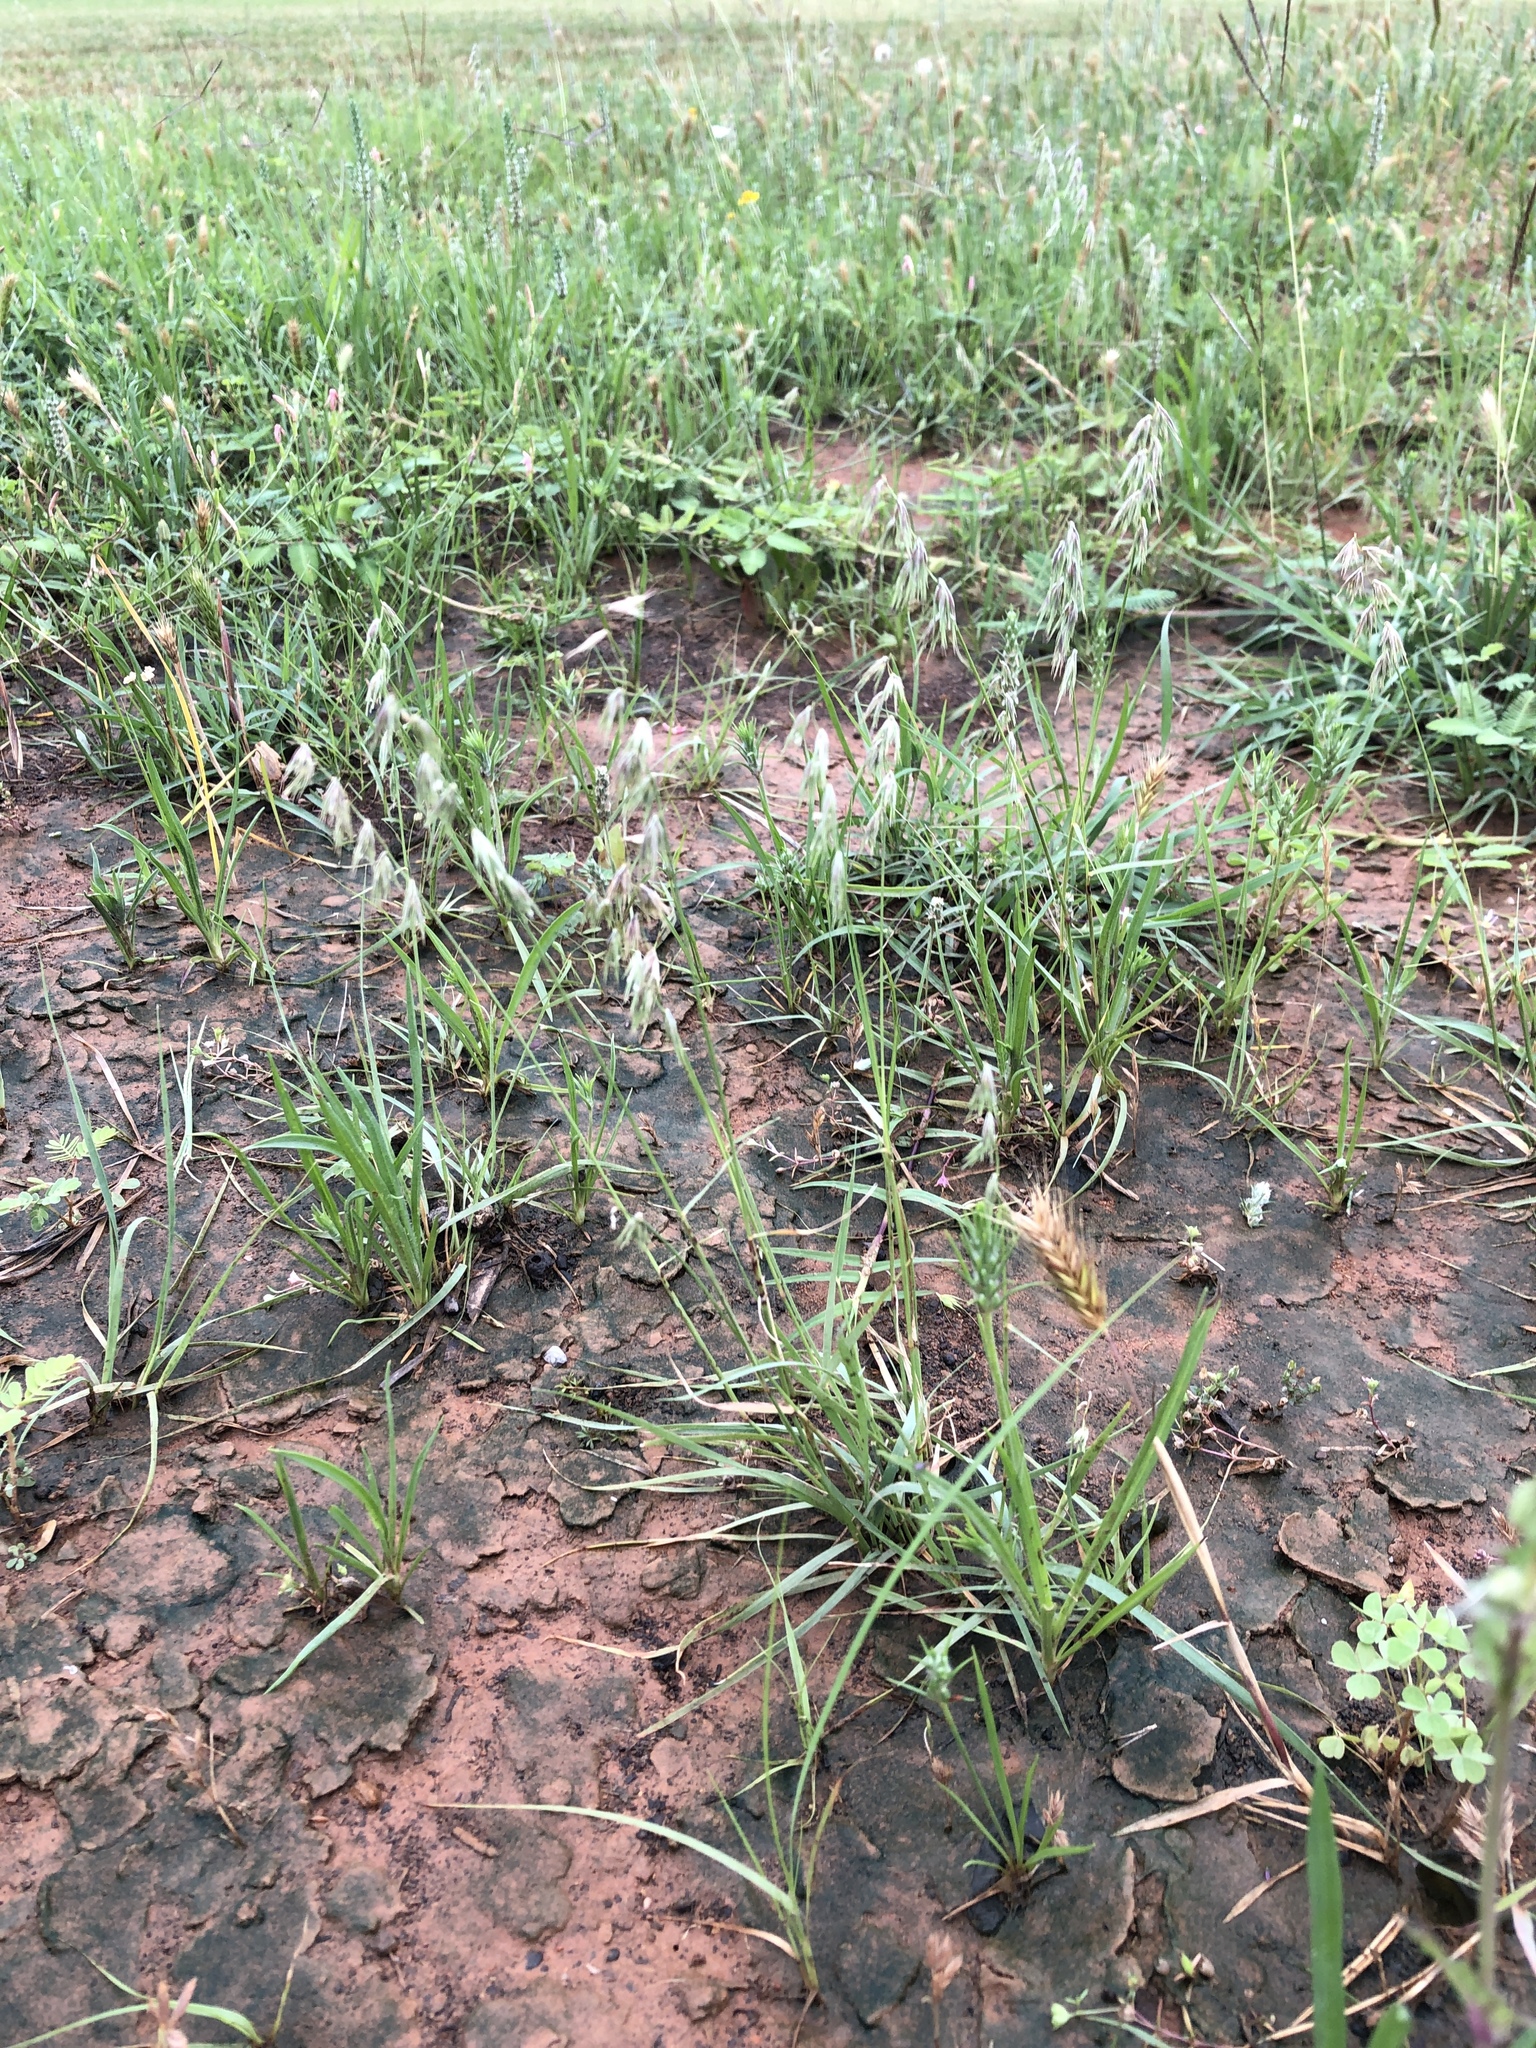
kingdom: Plantae
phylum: Tracheophyta
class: Liliopsida
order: Poales
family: Poaceae
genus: Bouteloua
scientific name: Bouteloua rigidiseta
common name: Texas grama
